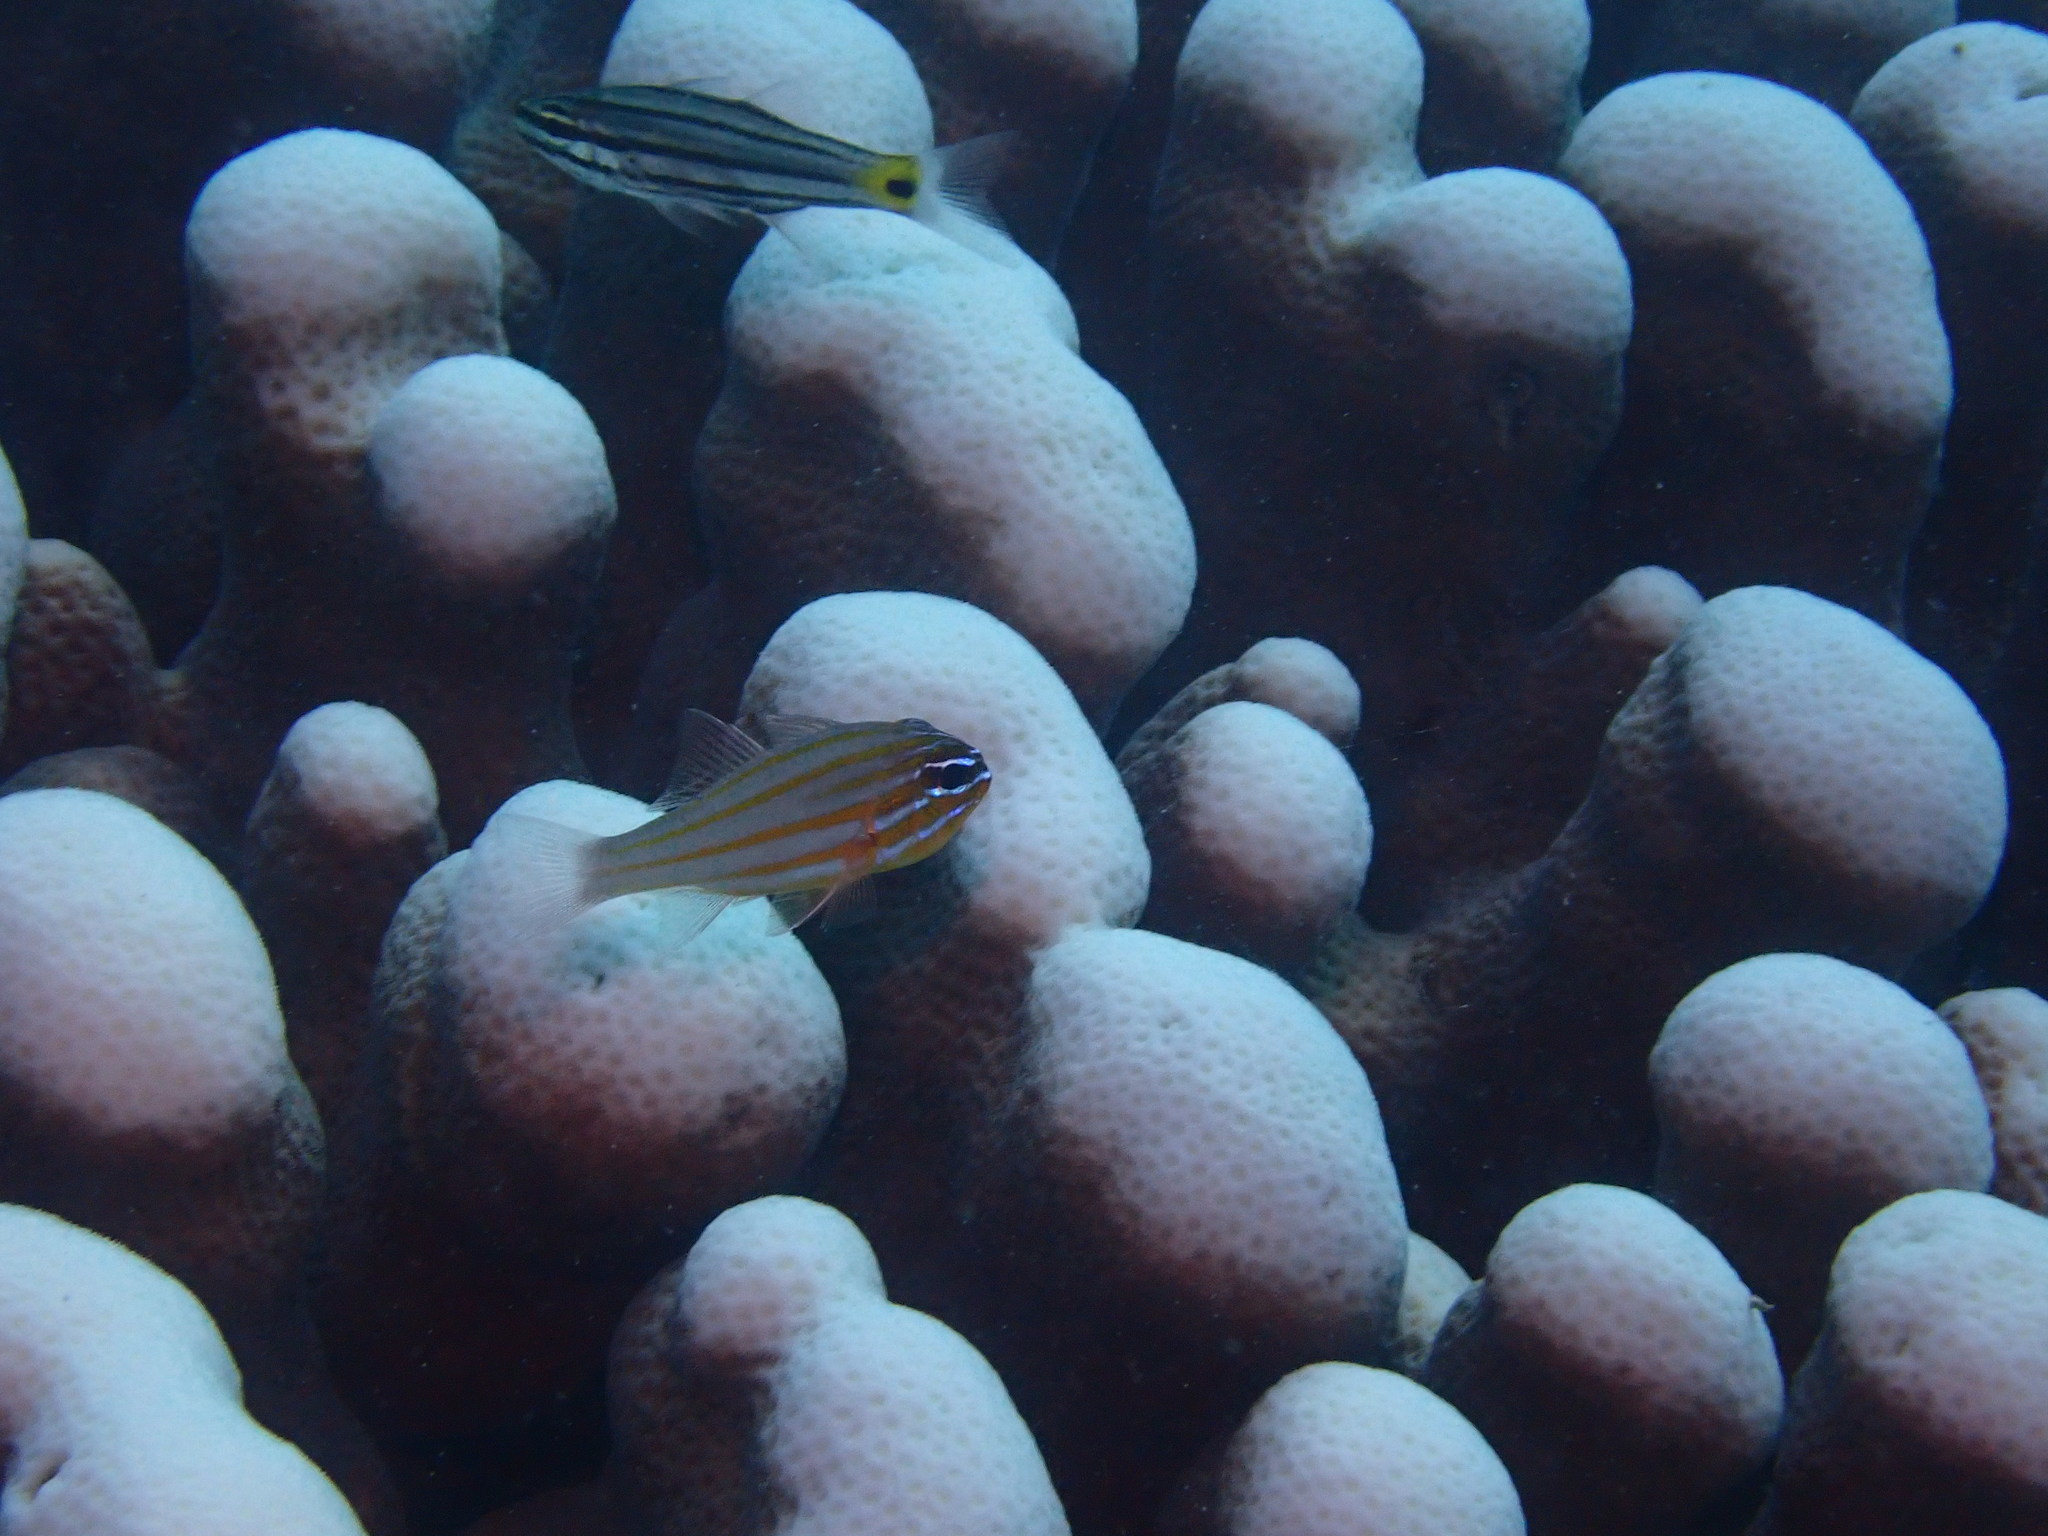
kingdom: Animalia
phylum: Chordata
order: Perciformes
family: Apogonidae
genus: Ostorhinchus
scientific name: Ostorhinchus cyanosoma
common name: Yellow-striped cardinalfish
